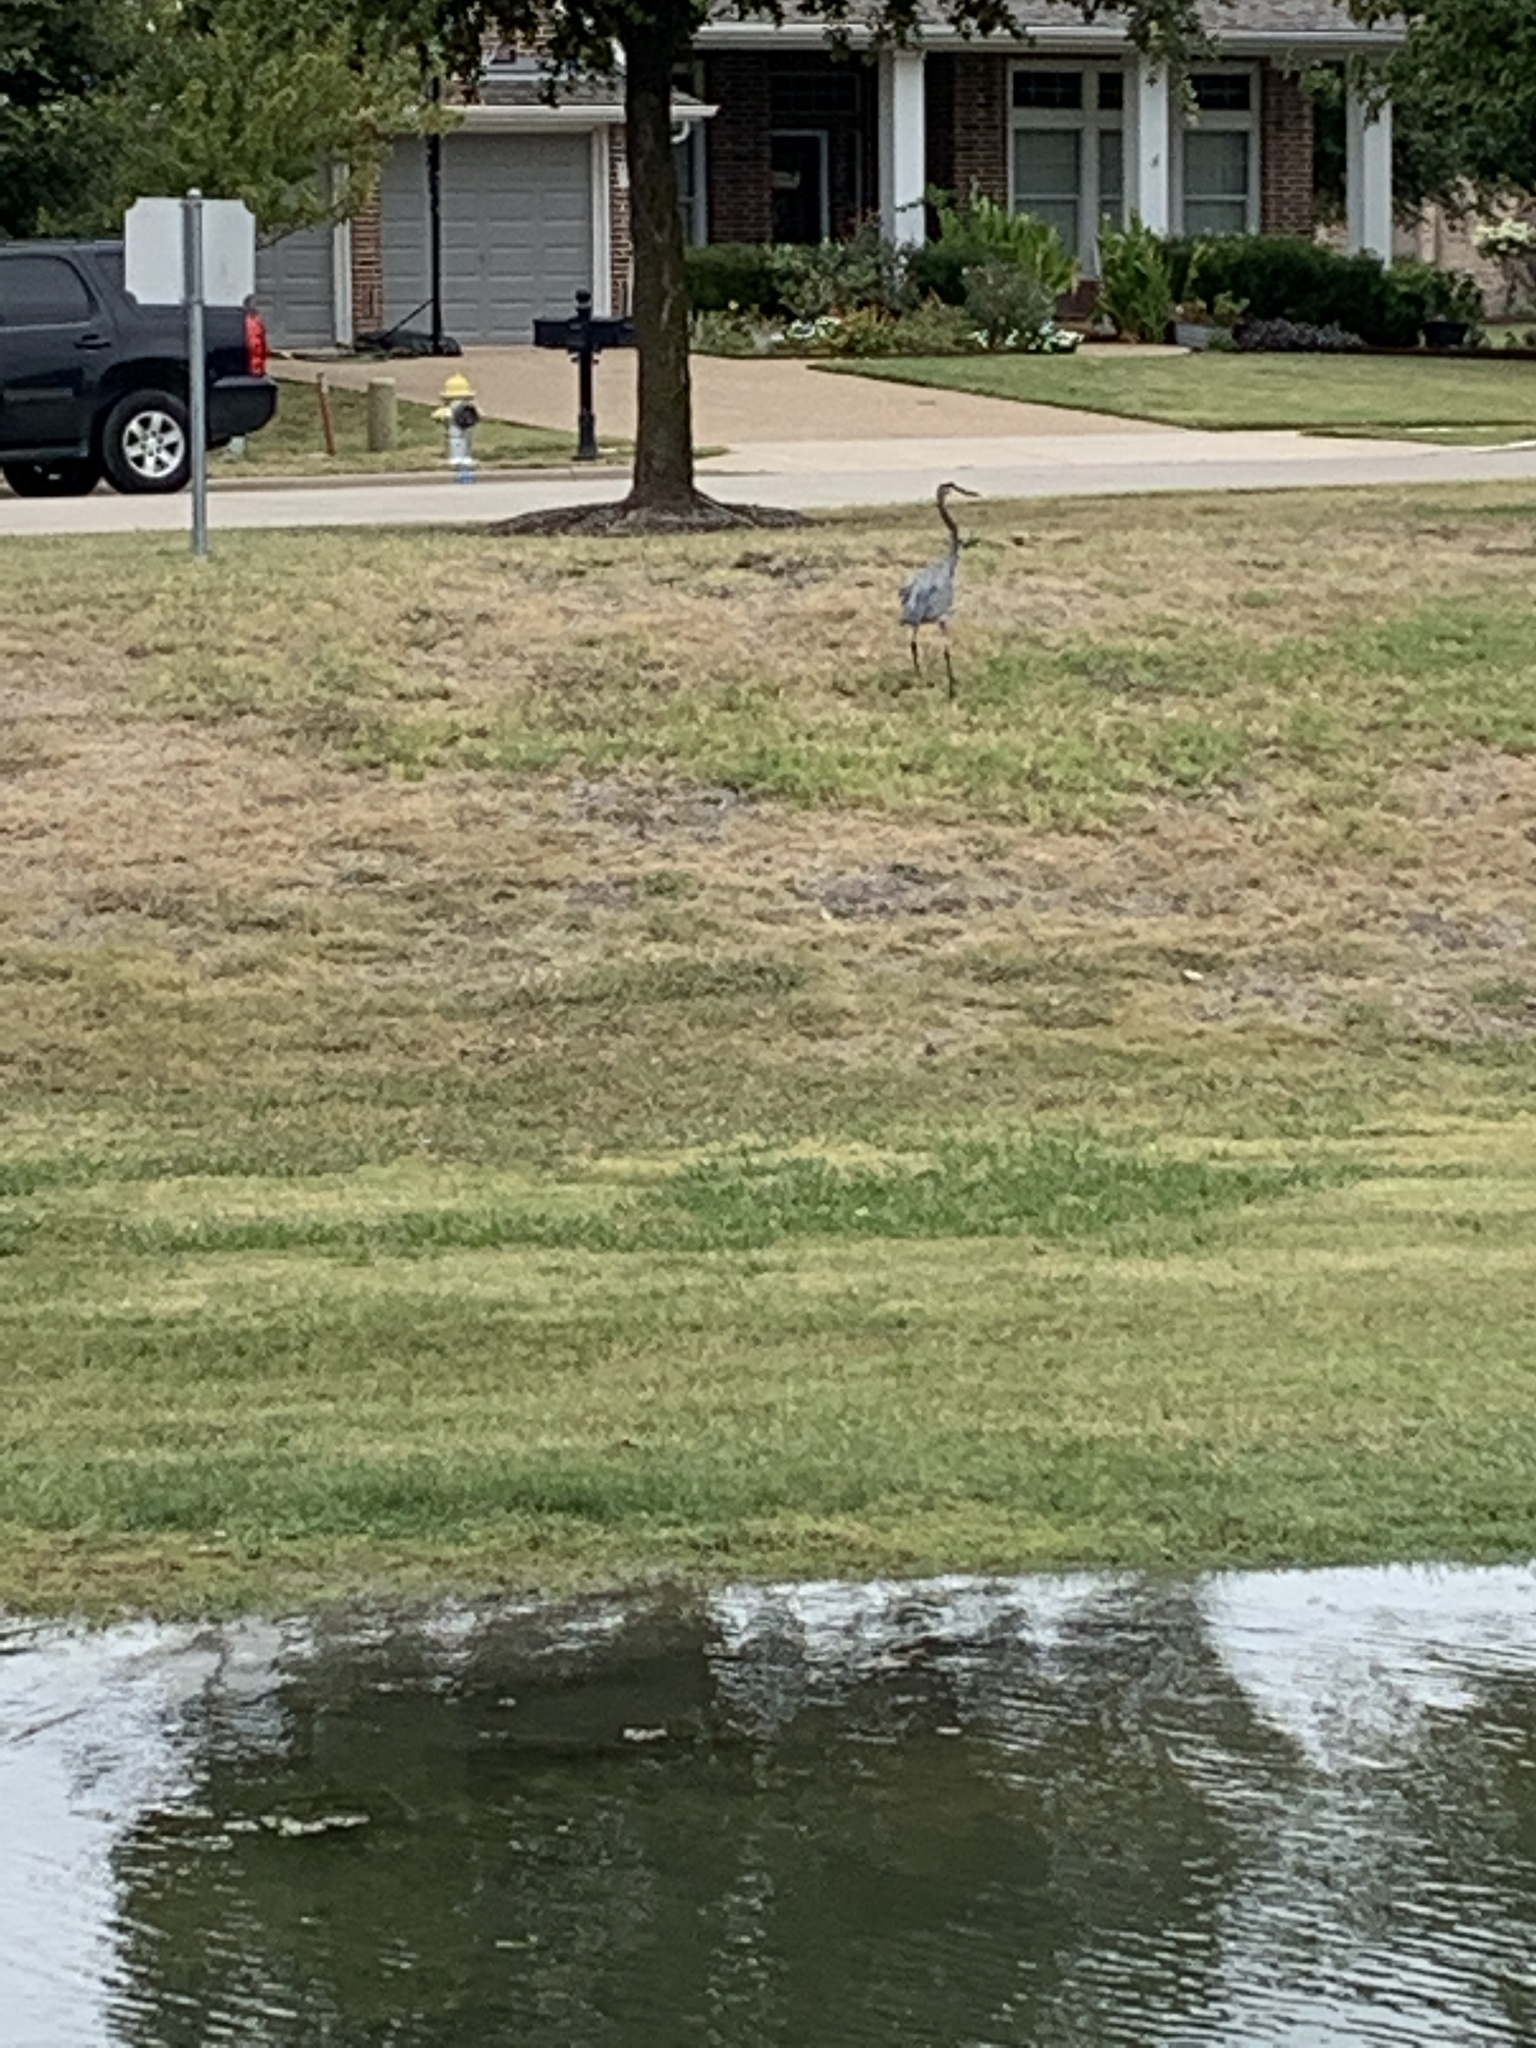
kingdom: Animalia
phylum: Chordata
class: Aves
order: Pelecaniformes
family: Ardeidae
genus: Ardea
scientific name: Ardea herodias
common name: Great blue heron
